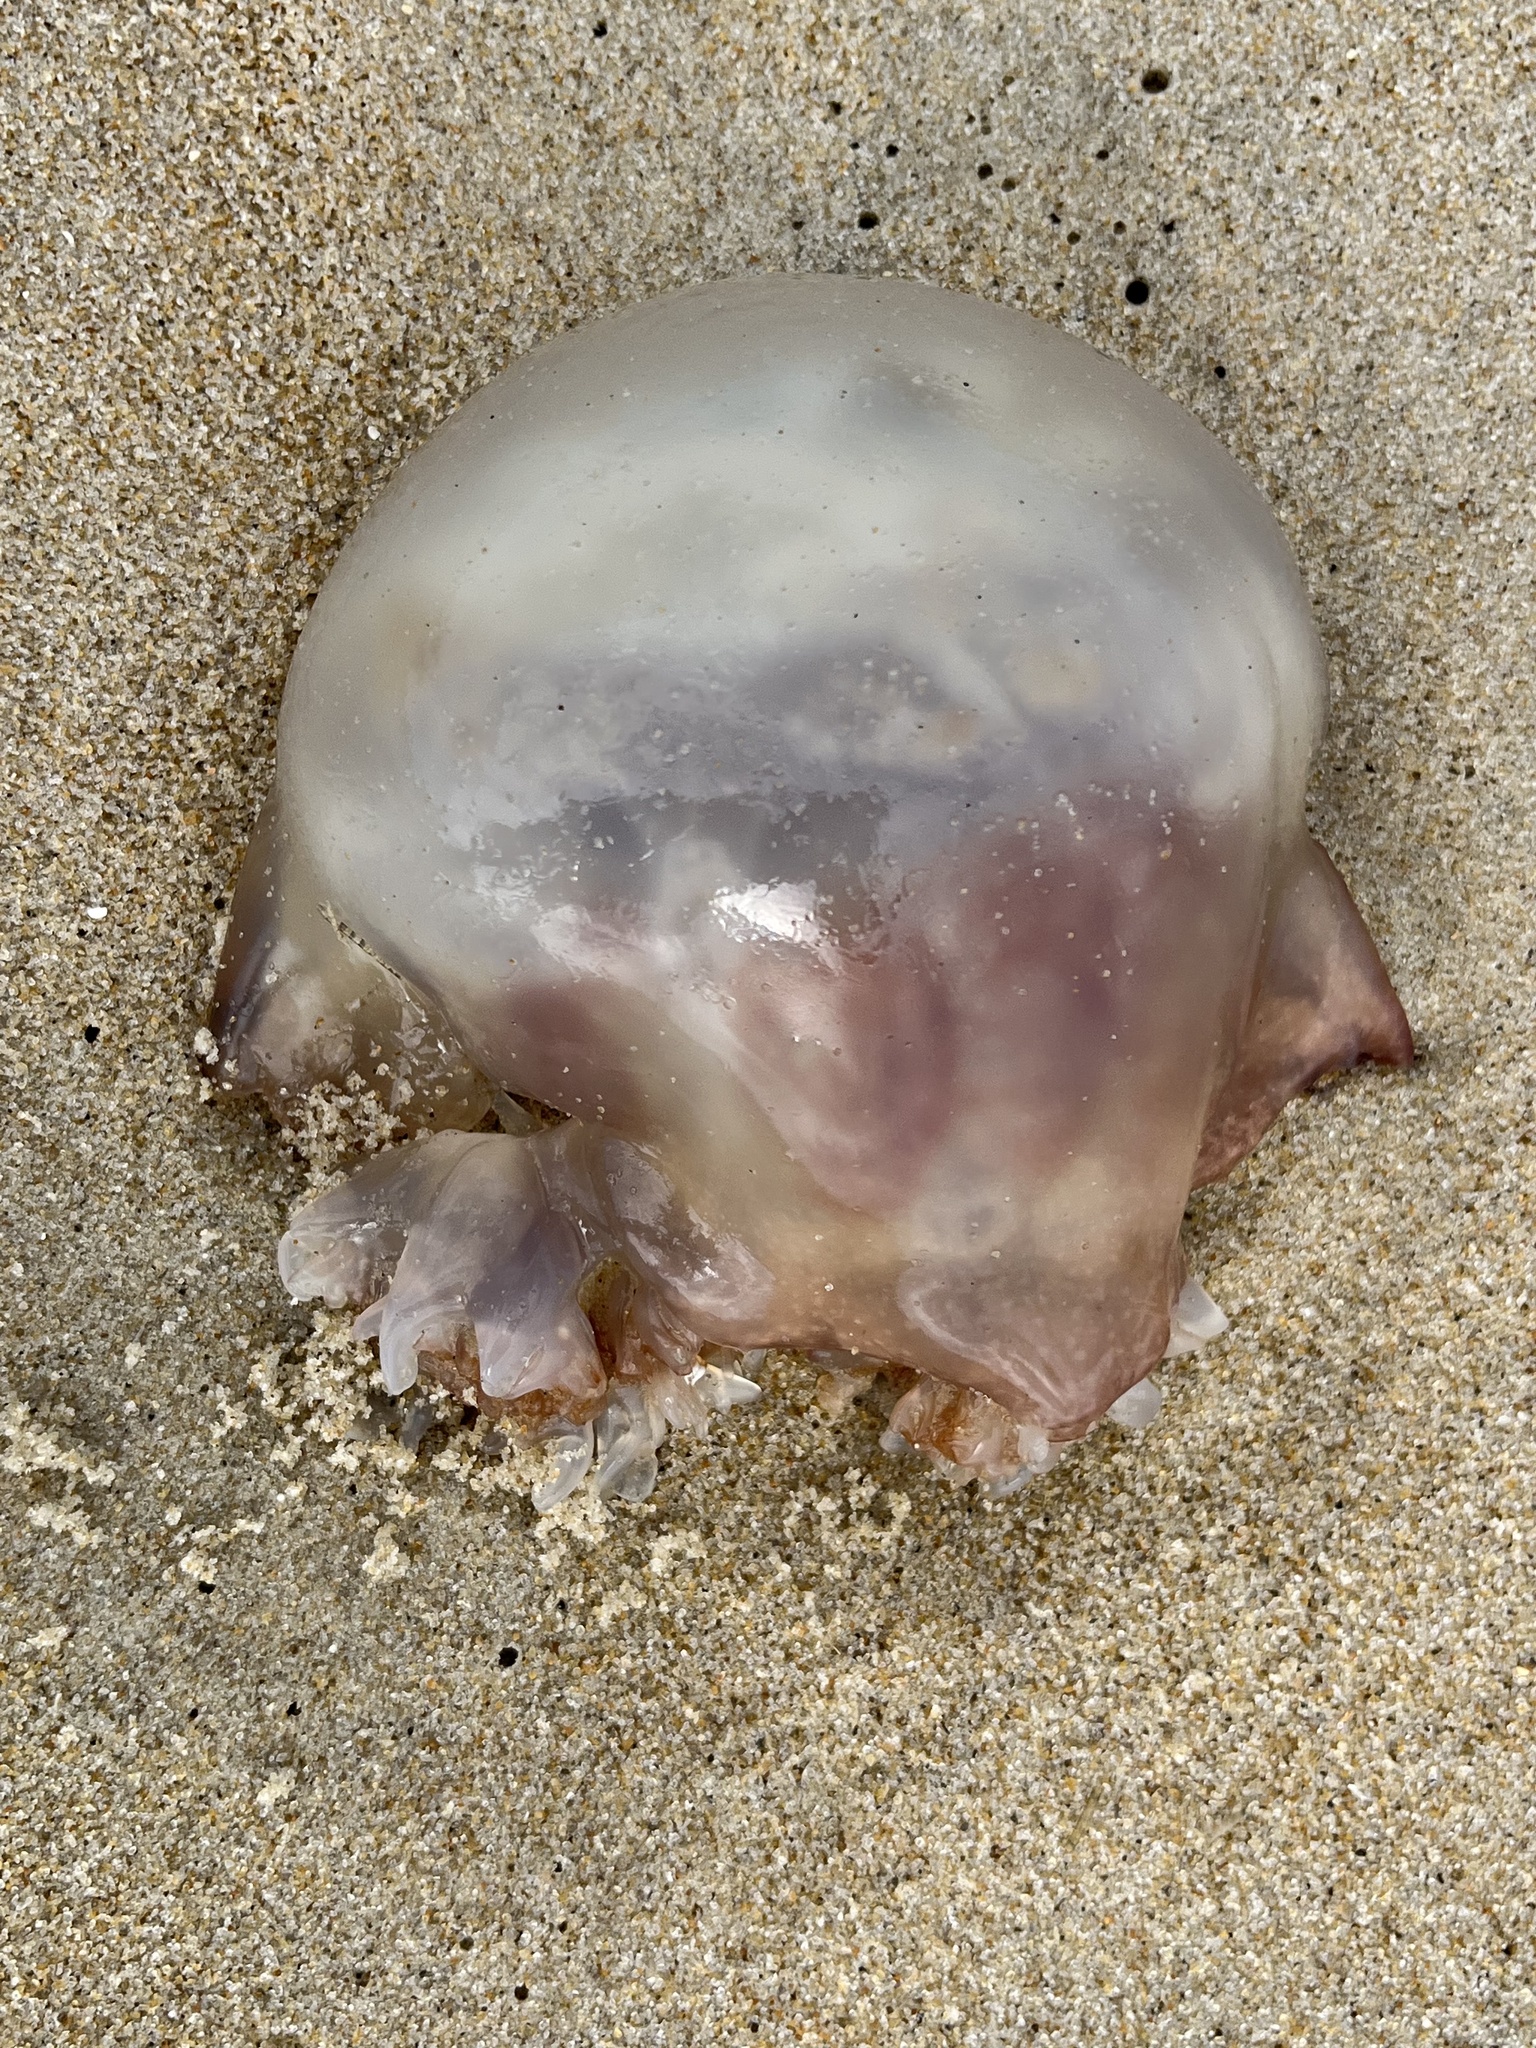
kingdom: Animalia
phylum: Cnidaria
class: Scyphozoa
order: Rhizostomeae
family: Stomolophidae
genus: Stomolophus
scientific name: Stomolophus meleagris
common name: Cabbagehead
